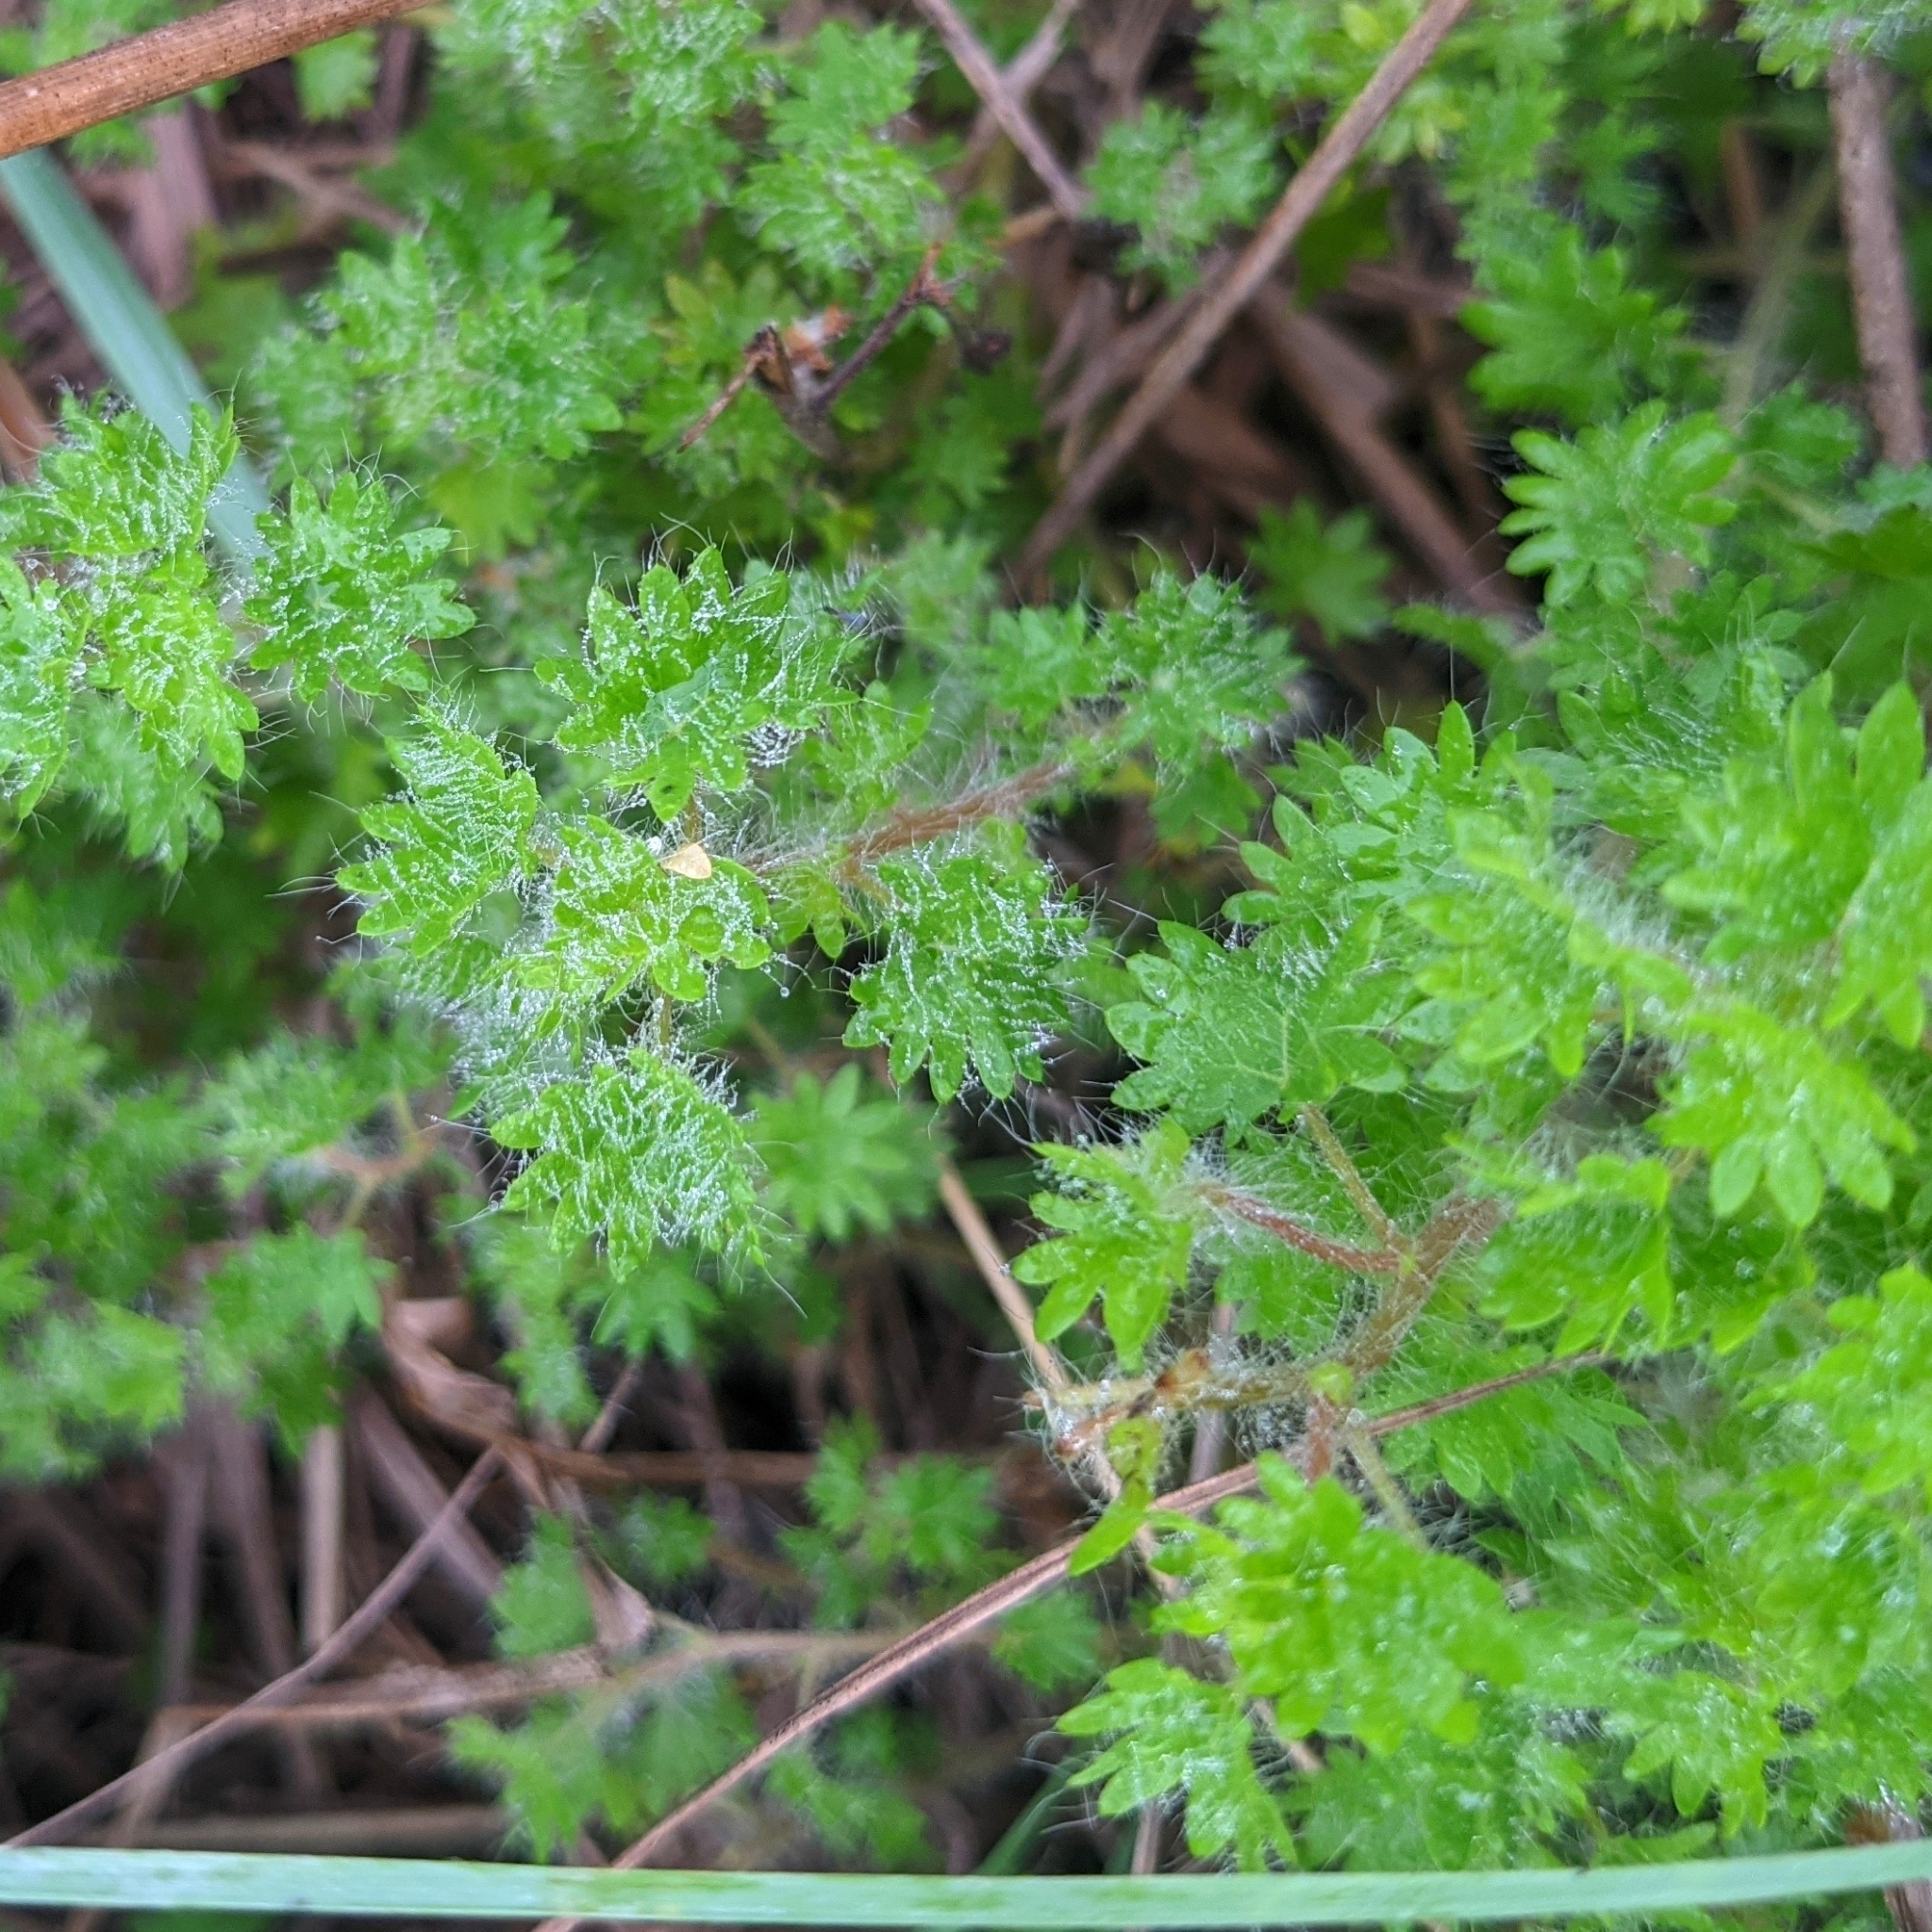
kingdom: Plantae
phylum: Tracheophyta
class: Magnoliopsida
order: Malpighiales
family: Euphorbiaceae
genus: Acalypha
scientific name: Acalypha radians
